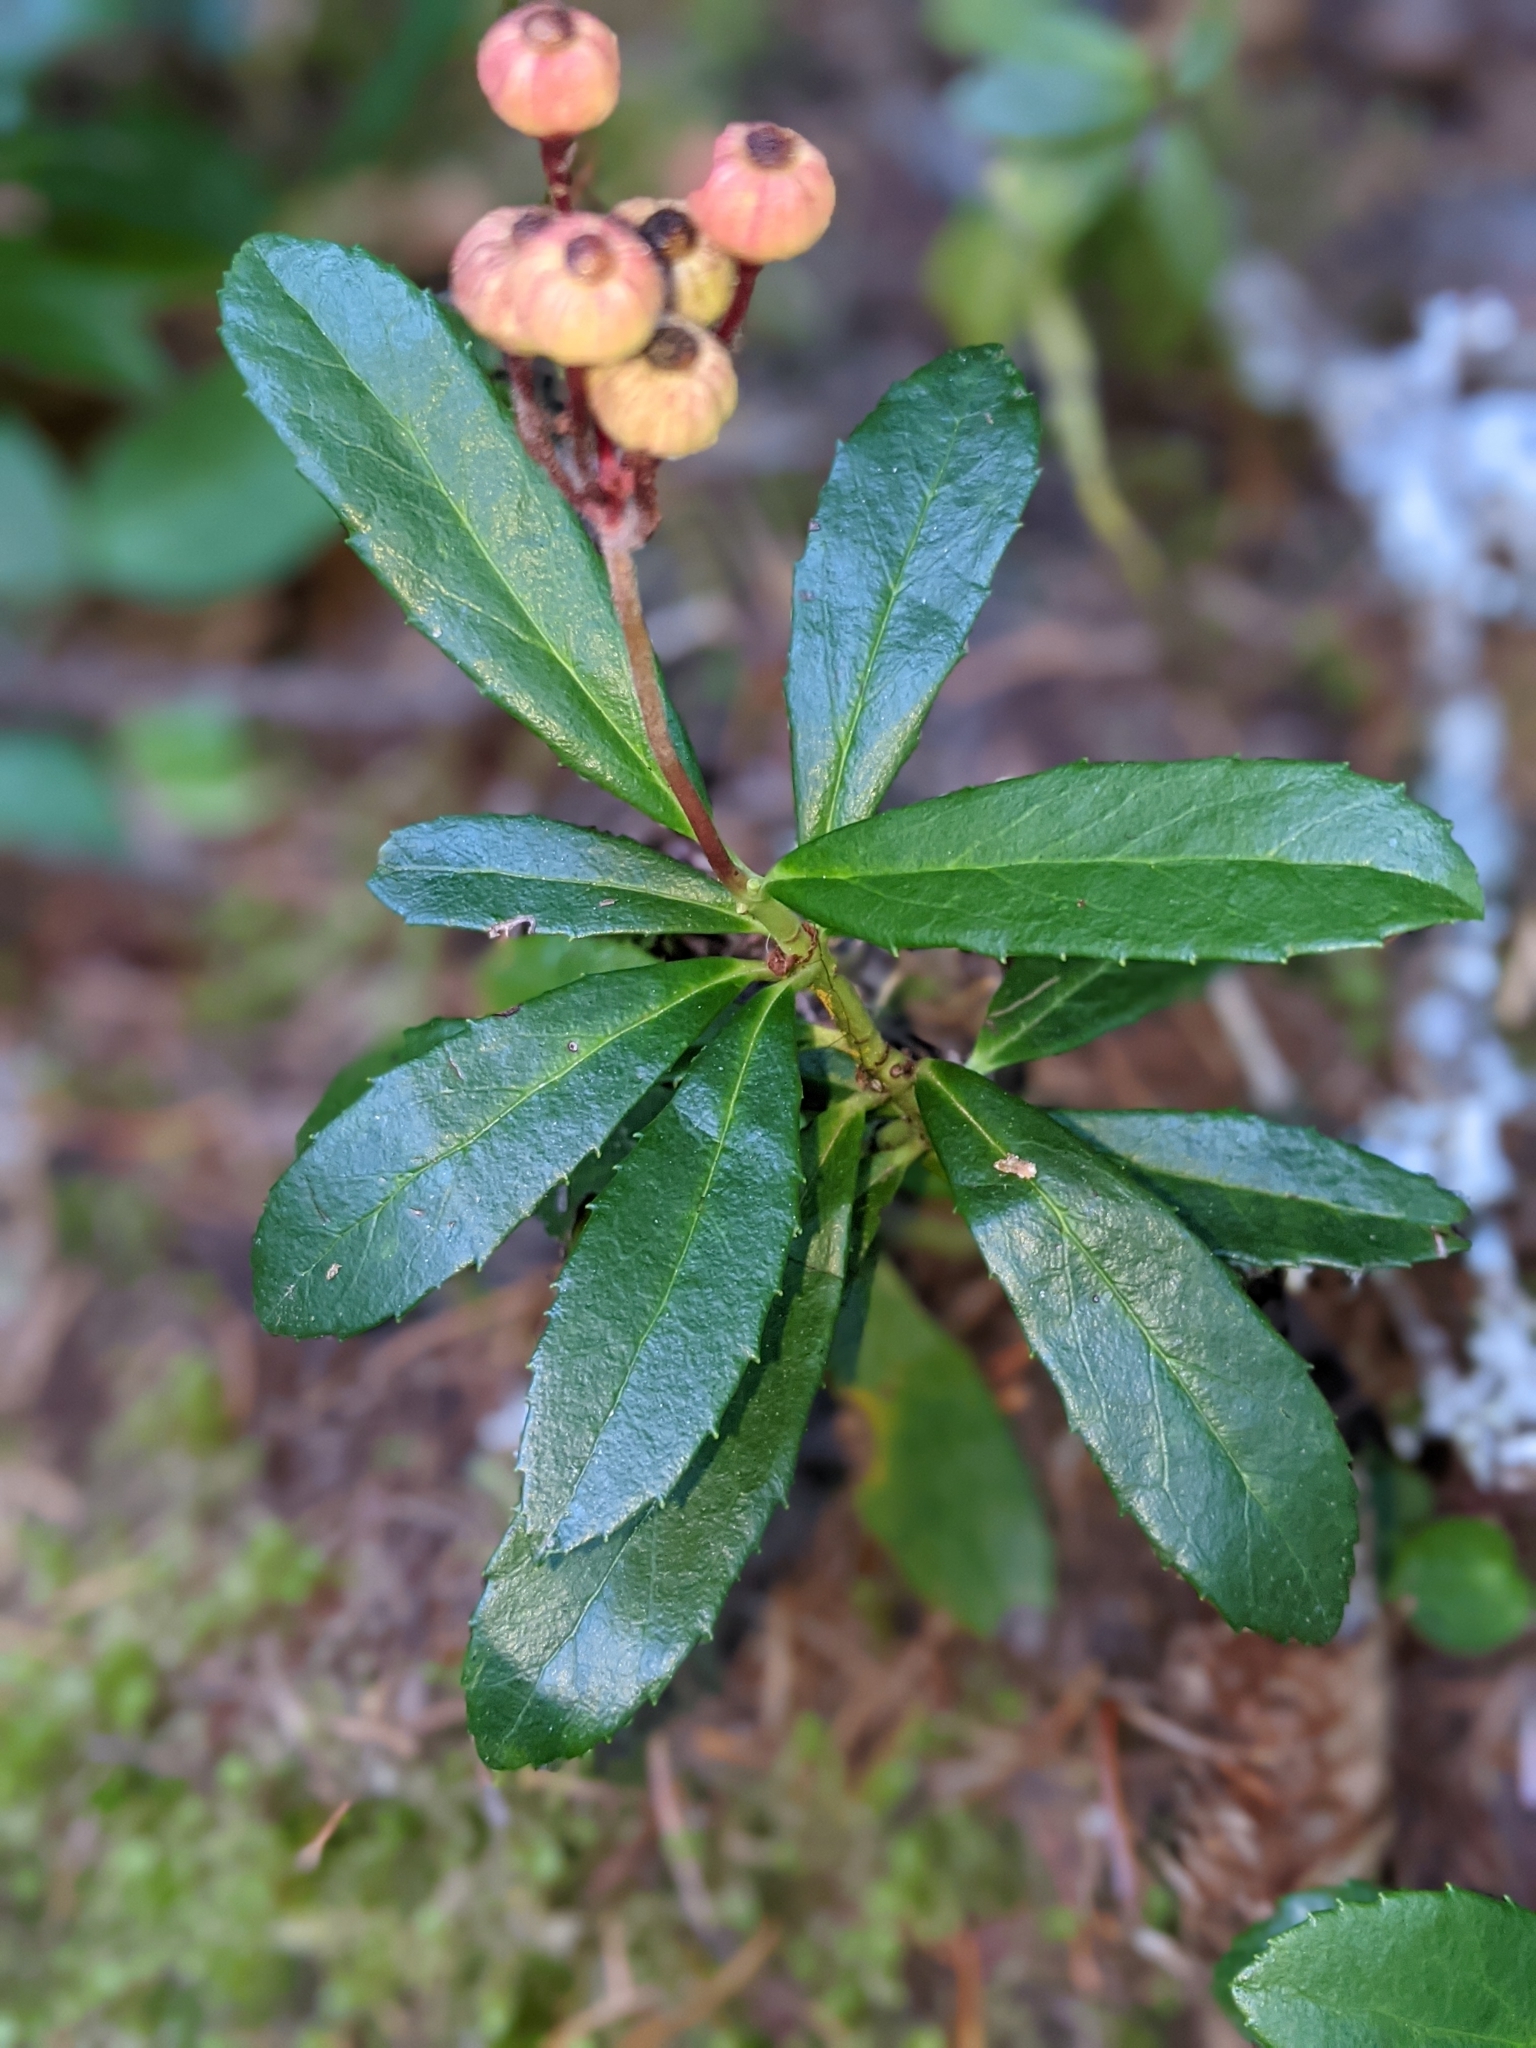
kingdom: Plantae
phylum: Tracheophyta
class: Magnoliopsida
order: Ericales
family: Ericaceae
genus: Chimaphila
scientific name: Chimaphila umbellata
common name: Pipsissewa
